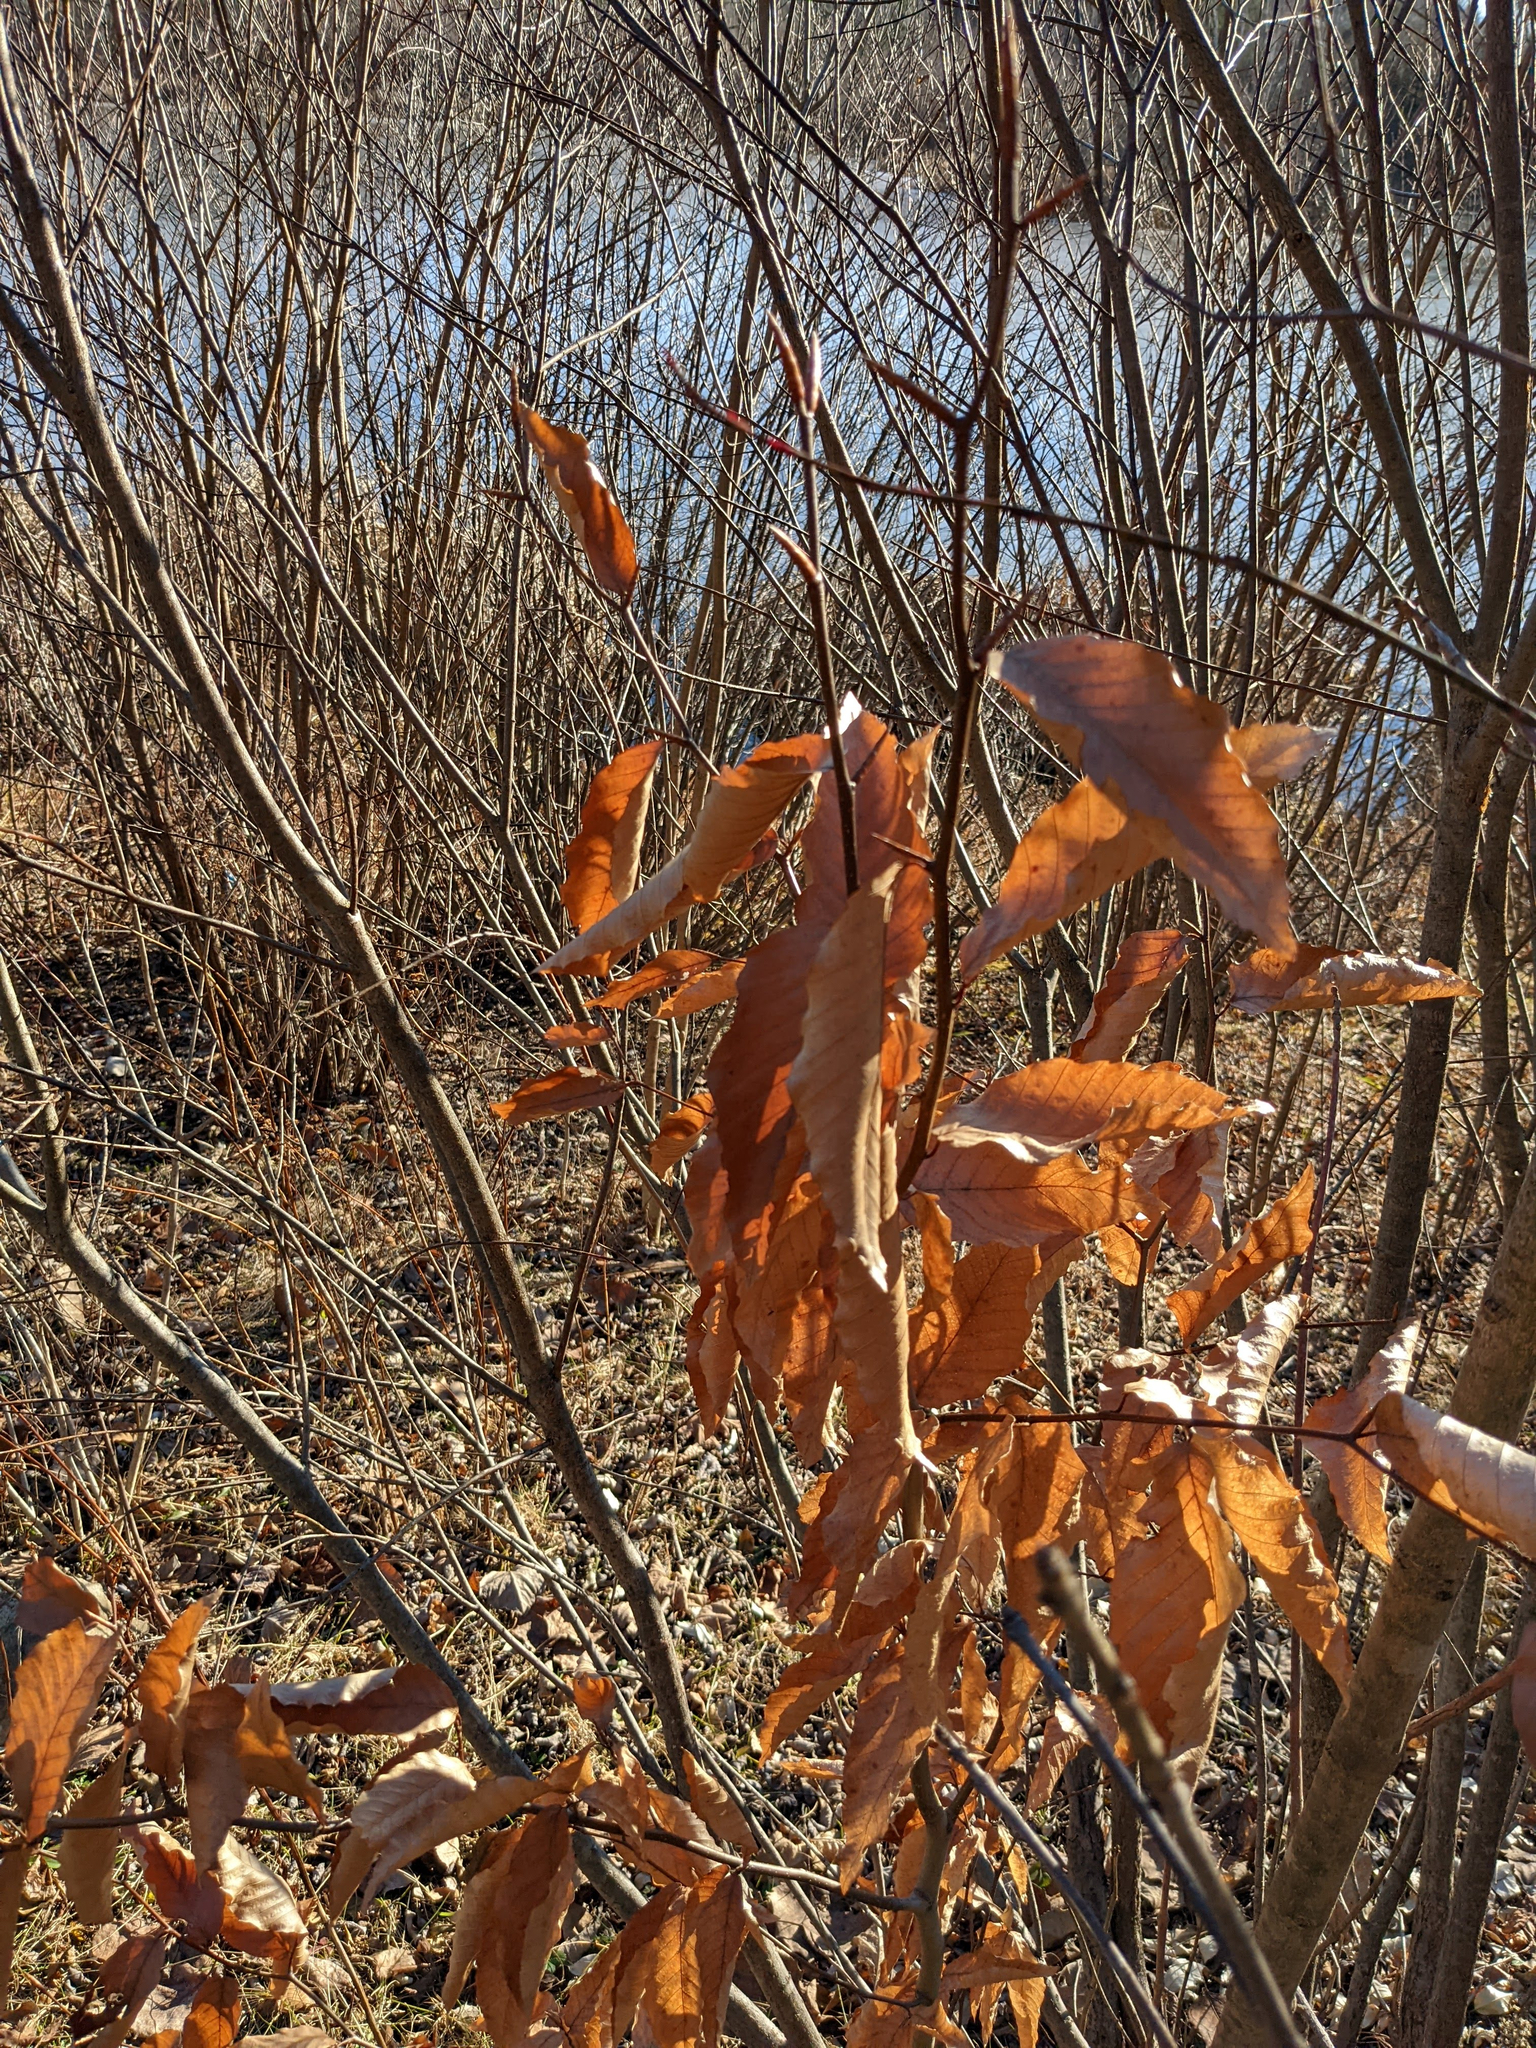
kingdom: Plantae
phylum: Tracheophyta
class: Magnoliopsida
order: Fagales
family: Fagaceae
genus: Fagus
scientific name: Fagus grandifolia
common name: American beech
